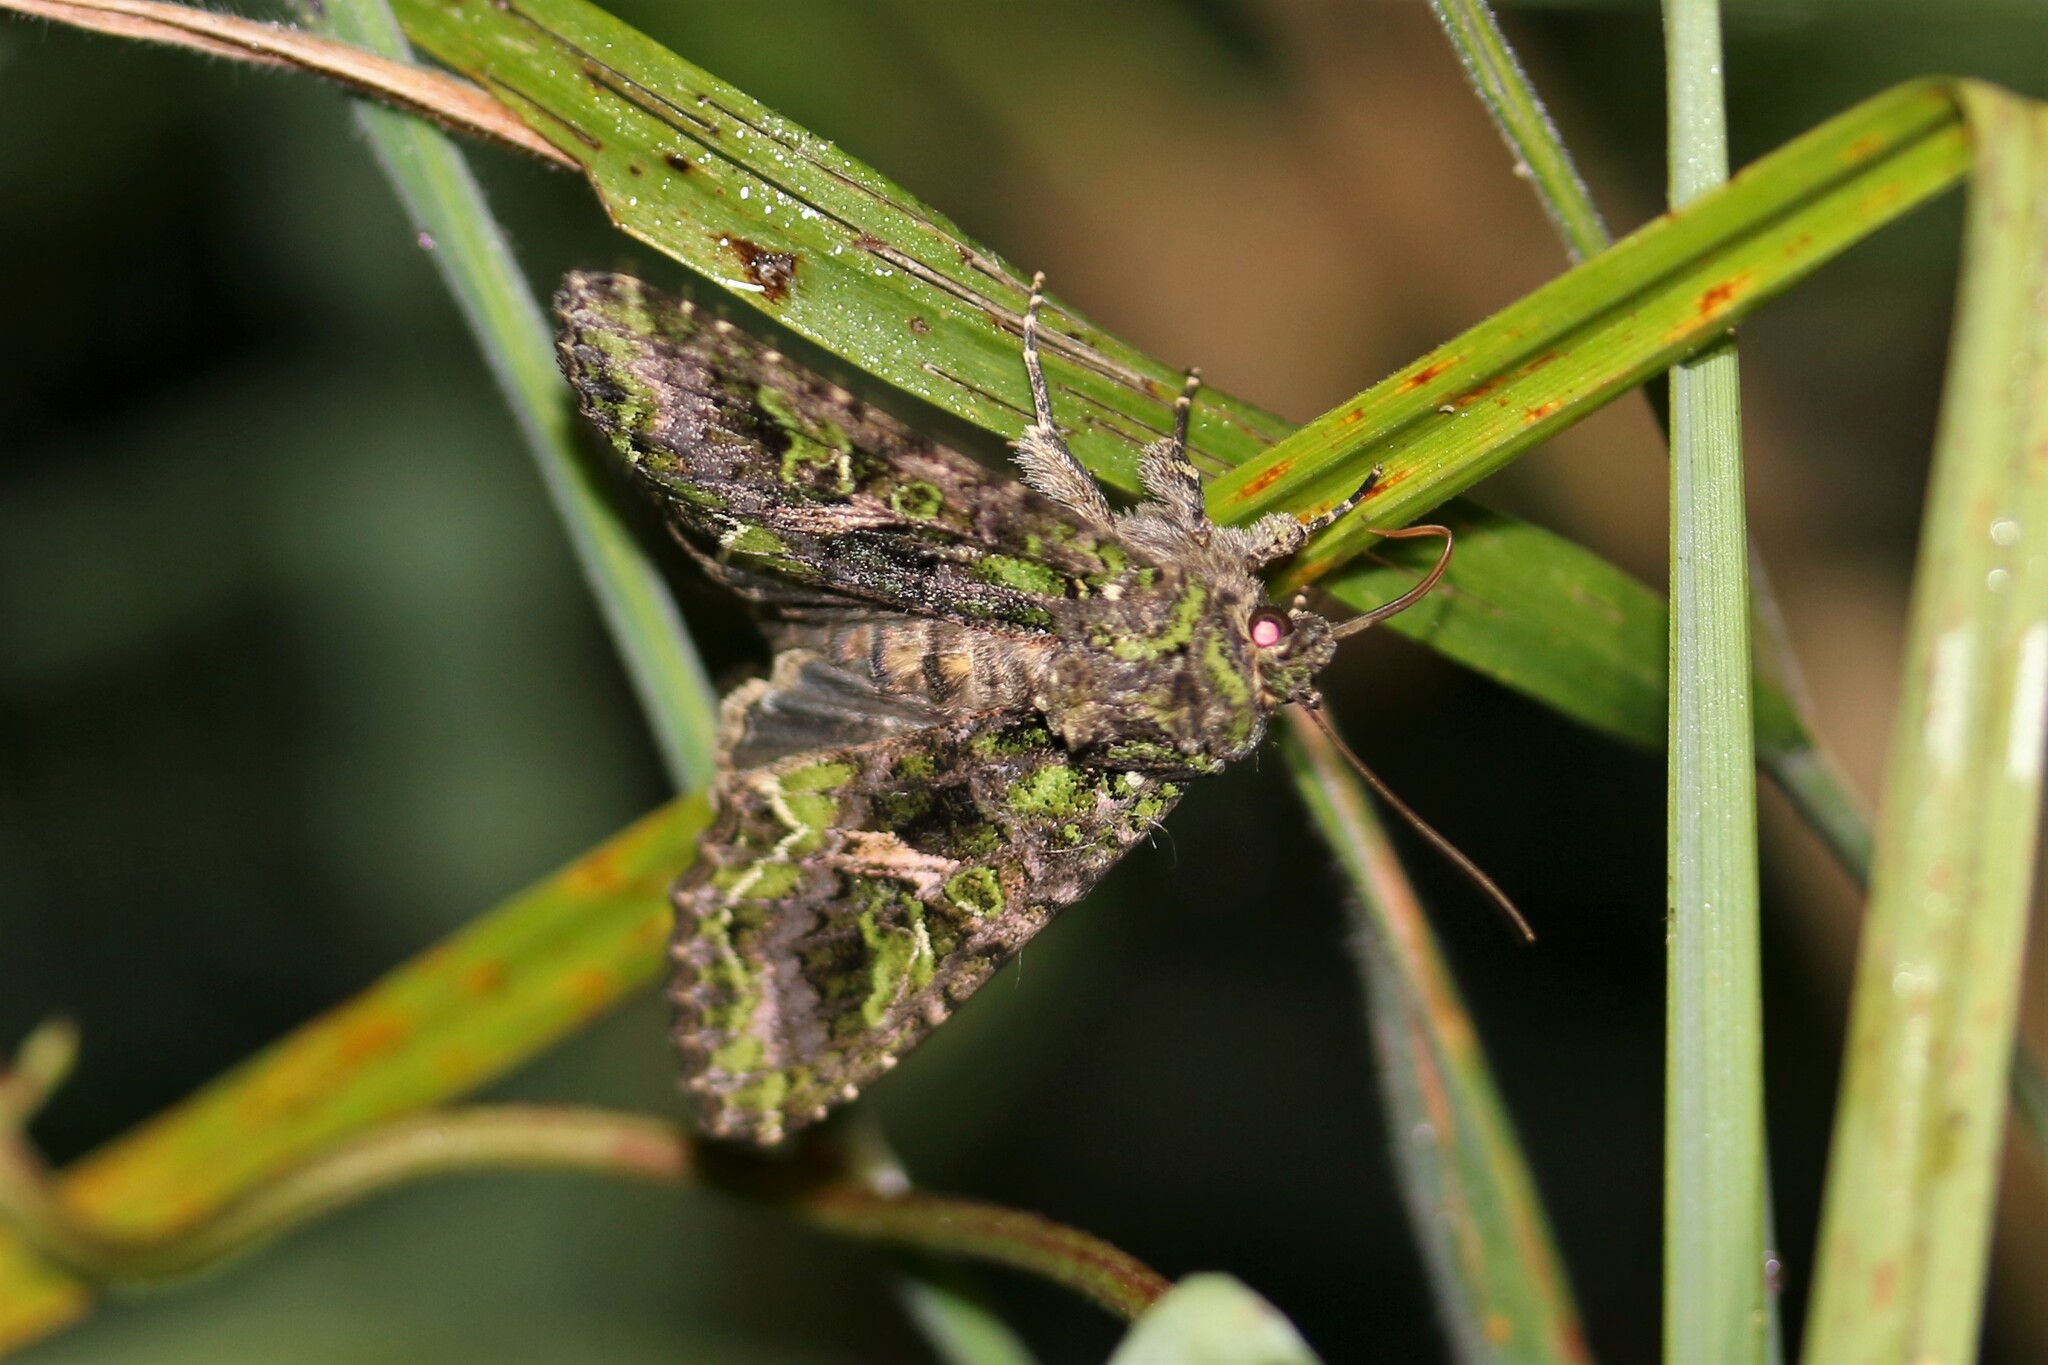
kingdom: Animalia
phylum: Arthropoda
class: Insecta
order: Lepidoptera
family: Noctuidae
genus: Trachea
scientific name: Trachea atriplicis
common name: Orache moth
